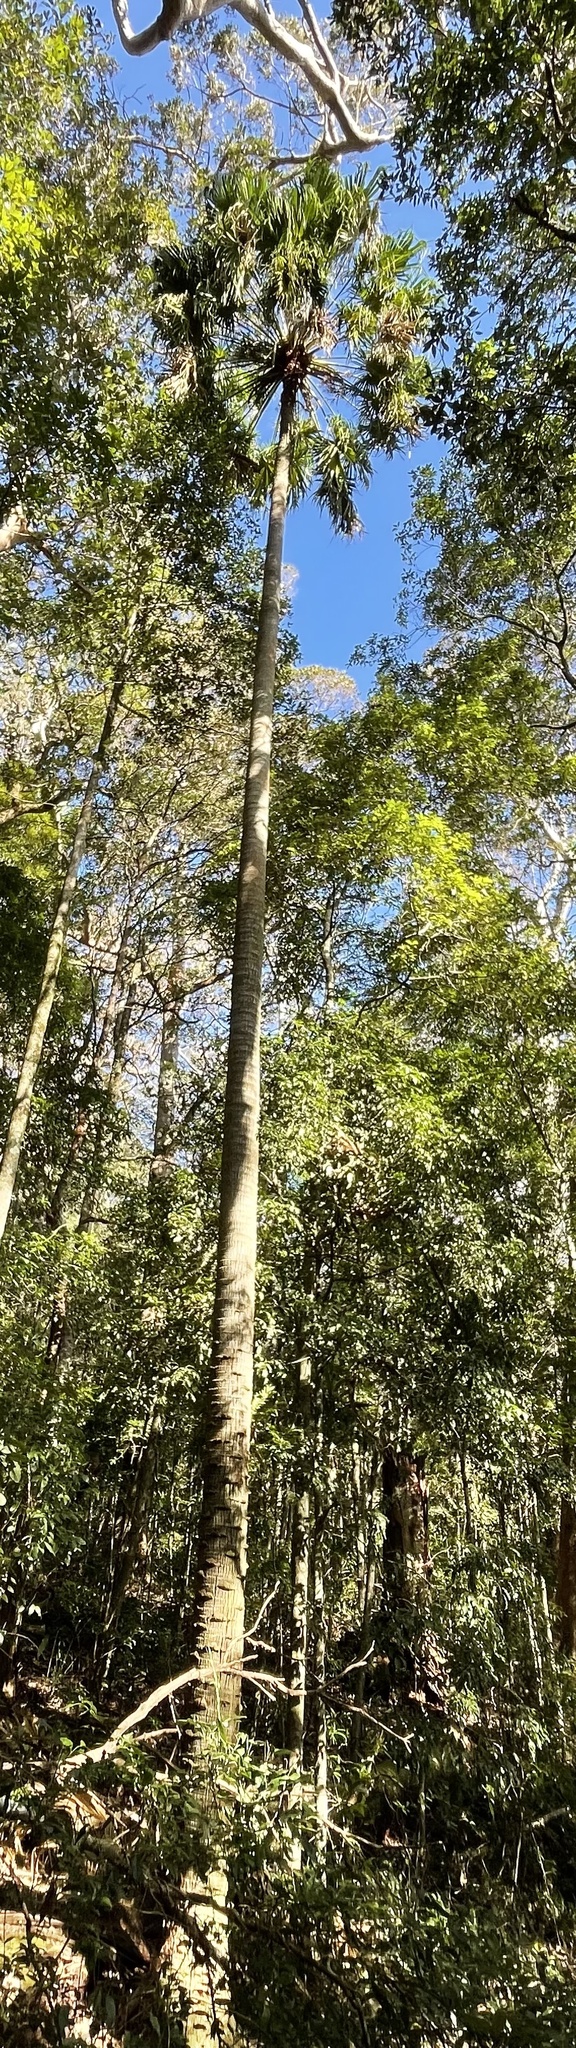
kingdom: Plantae
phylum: Tracheophyta
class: Liliopsida
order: Arecales
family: Arecaceae
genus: Livistona
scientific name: Livistona australis
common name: Cabbage fan palm
